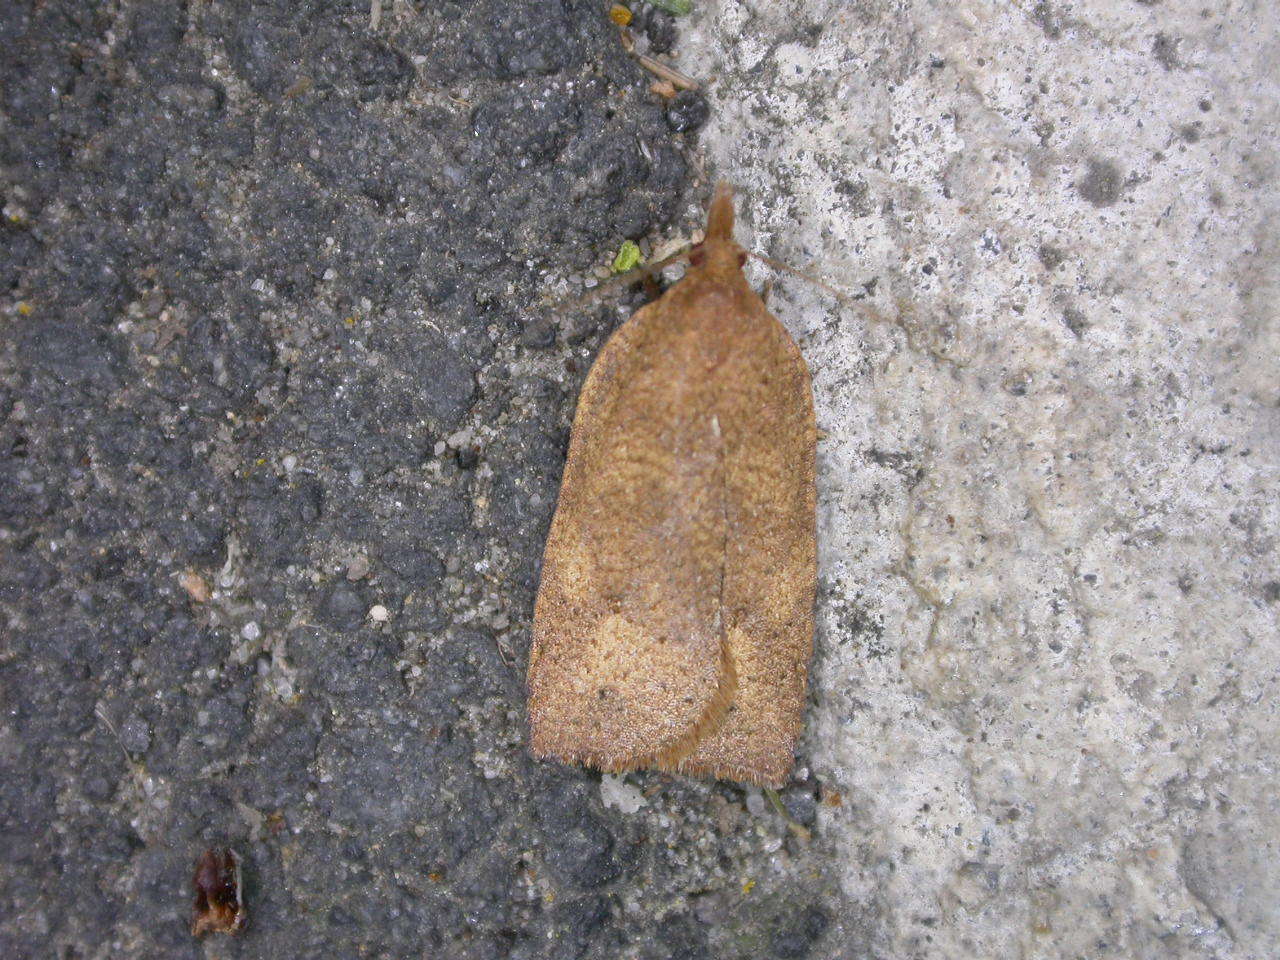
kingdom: Animalia
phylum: Arthropoda
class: Insecta
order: Lepidoptera
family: Tortricidae
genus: Planotortrix
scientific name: Planotortrix excessana
